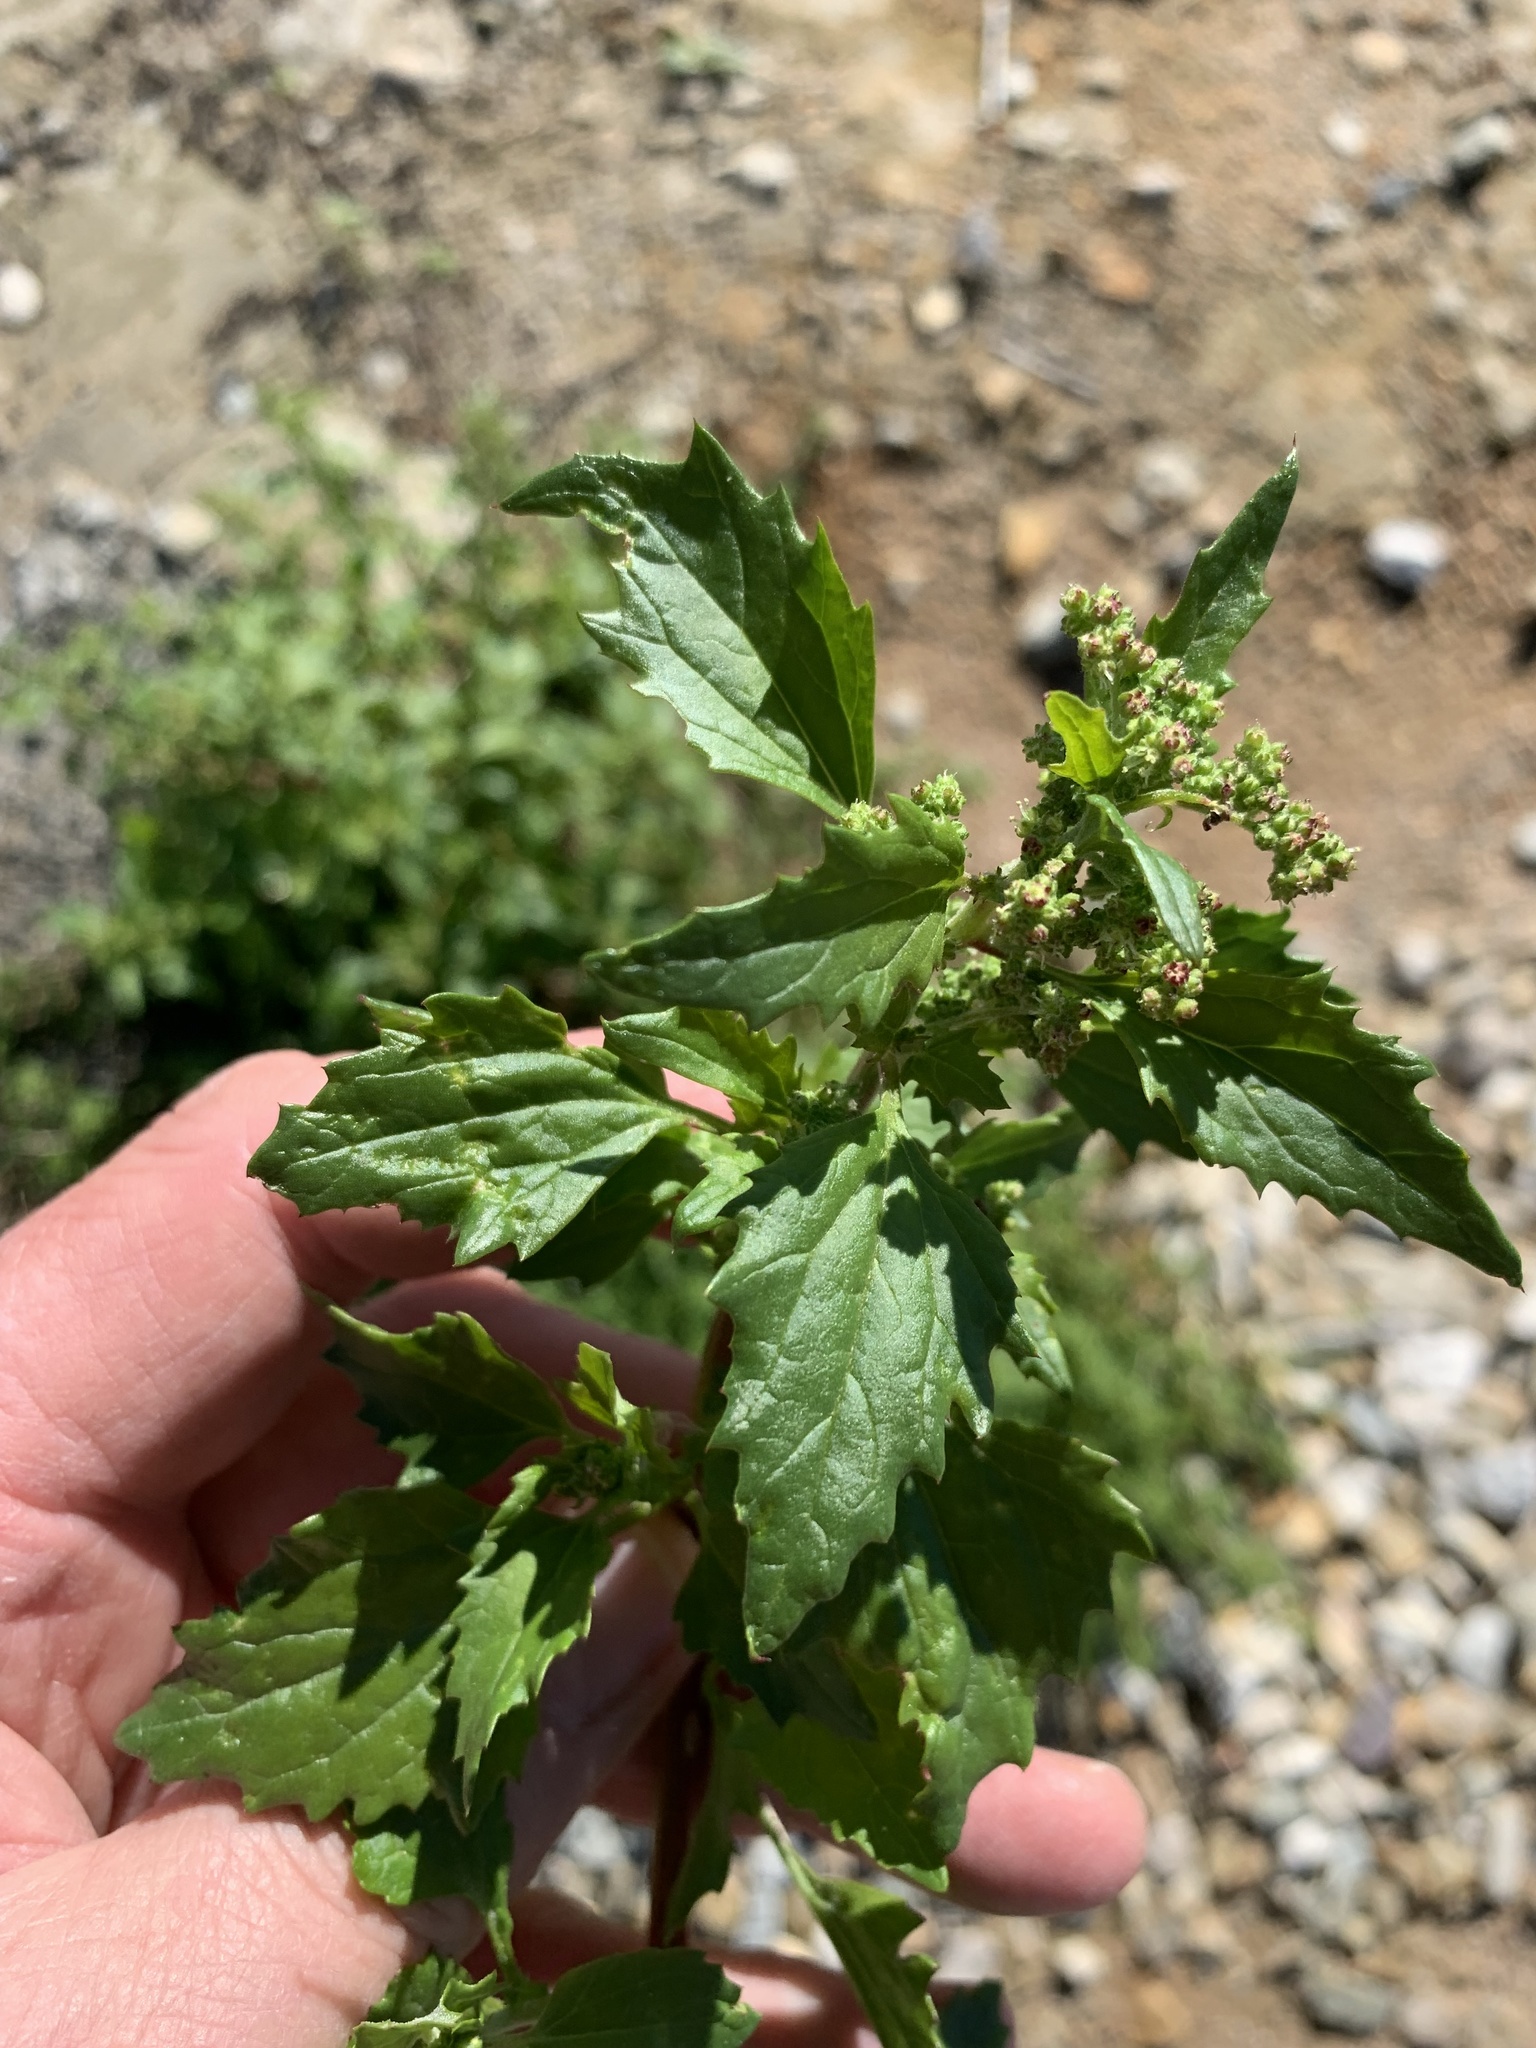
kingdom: Plantae
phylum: Tracheophyta
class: Magnoliopsida
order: Caryophyllales
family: Amaranthaceae
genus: Chenopodiastrum
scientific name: Chenopodiastrum murale
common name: Sowbane
